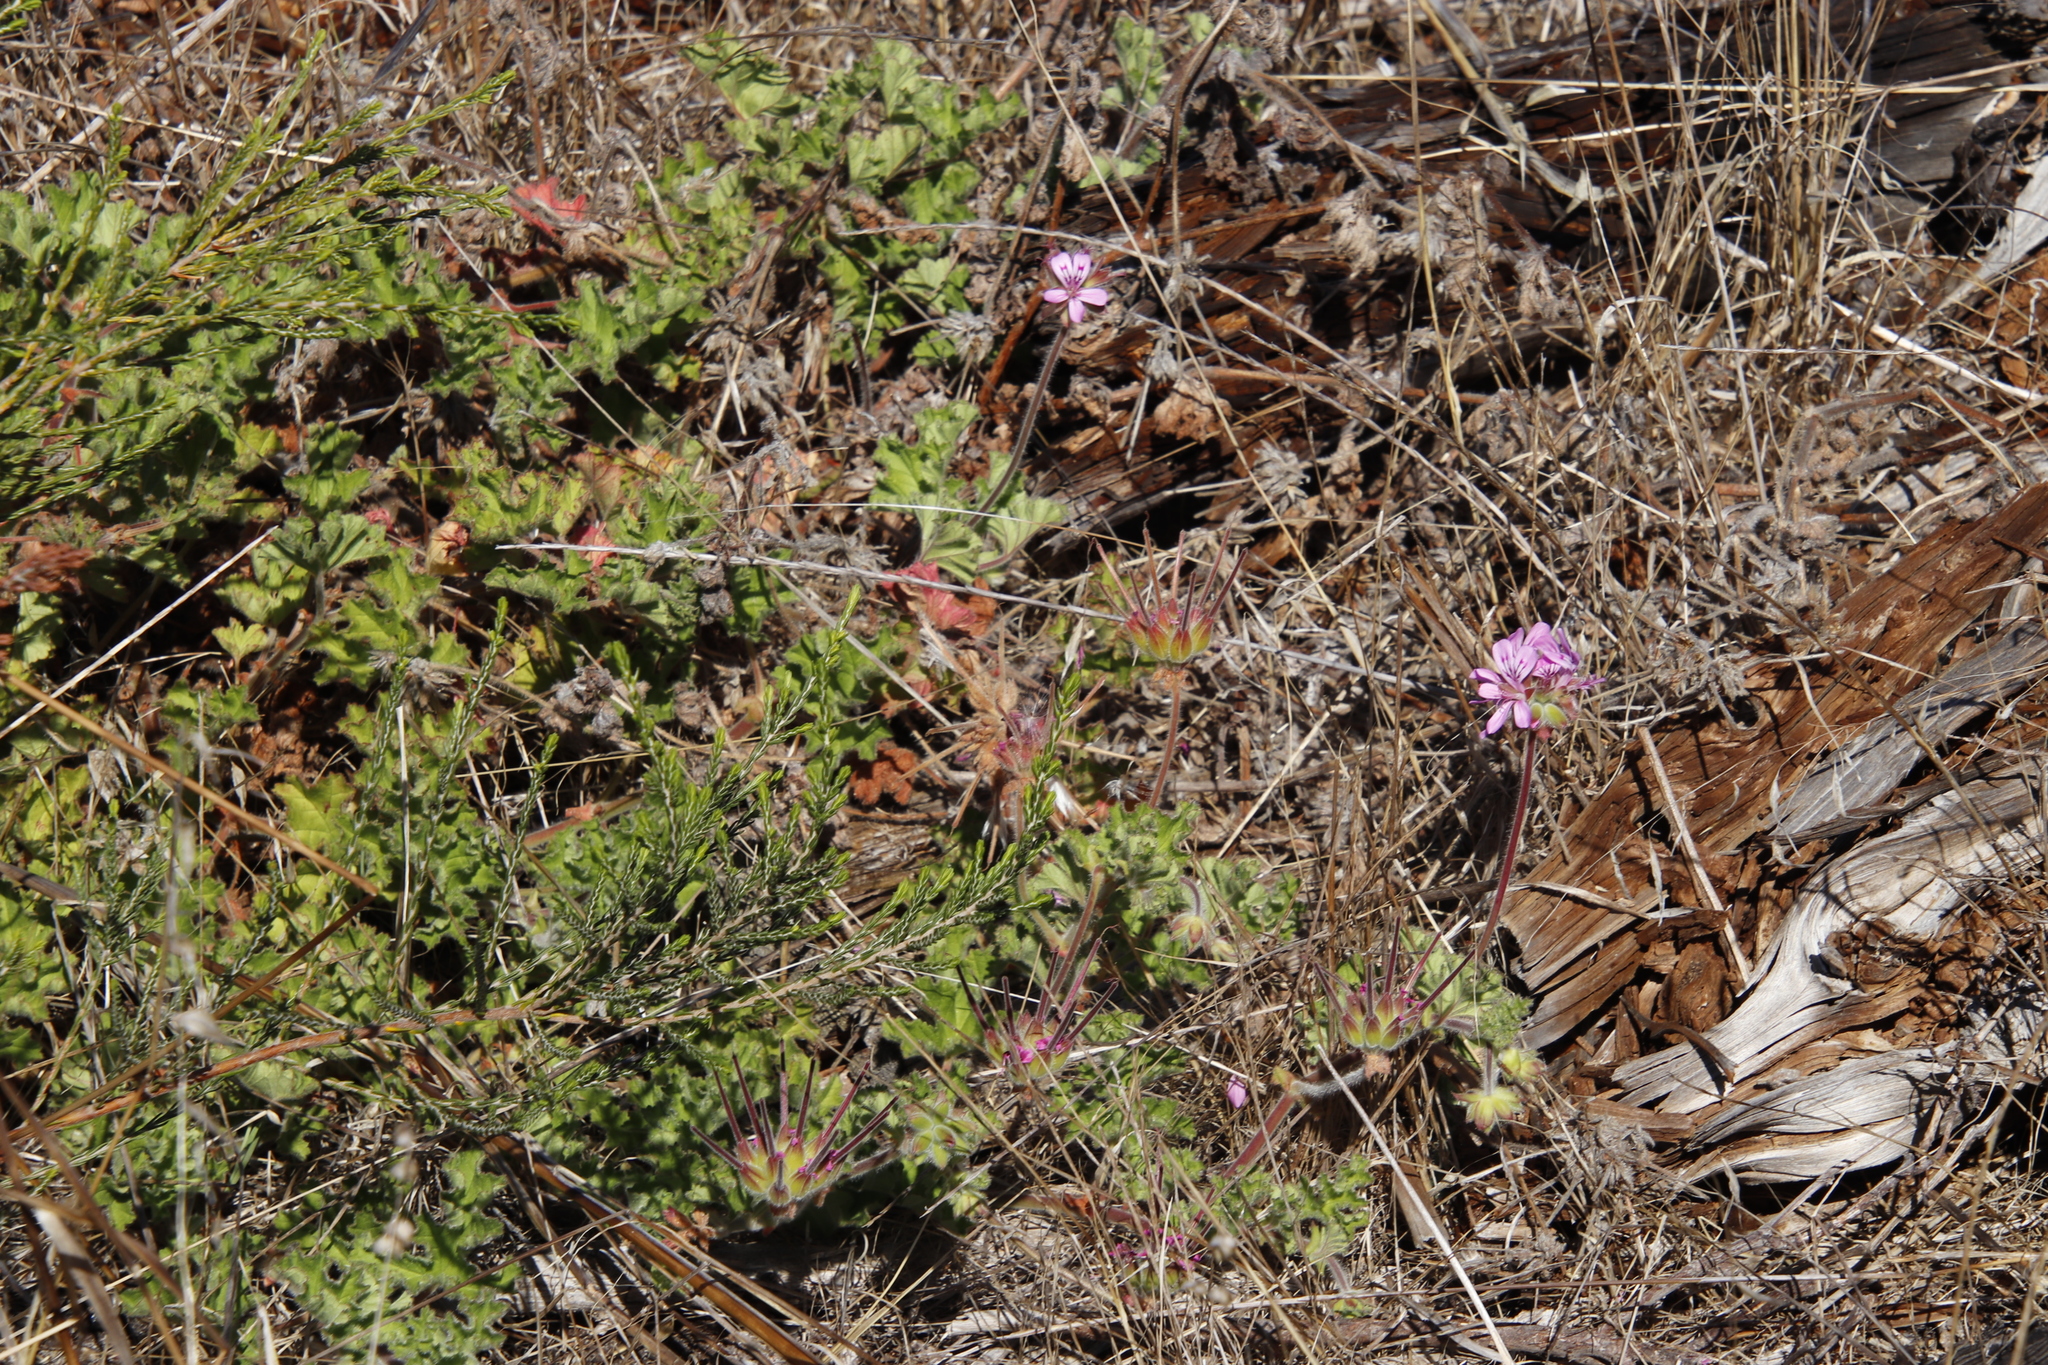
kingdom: Plantae
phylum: Tracheophyta
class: Magnoliopsida
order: Geraniales
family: Geraniaceae
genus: Pelargonium
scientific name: Pelargonium capitatum
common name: Rose scented geranium
